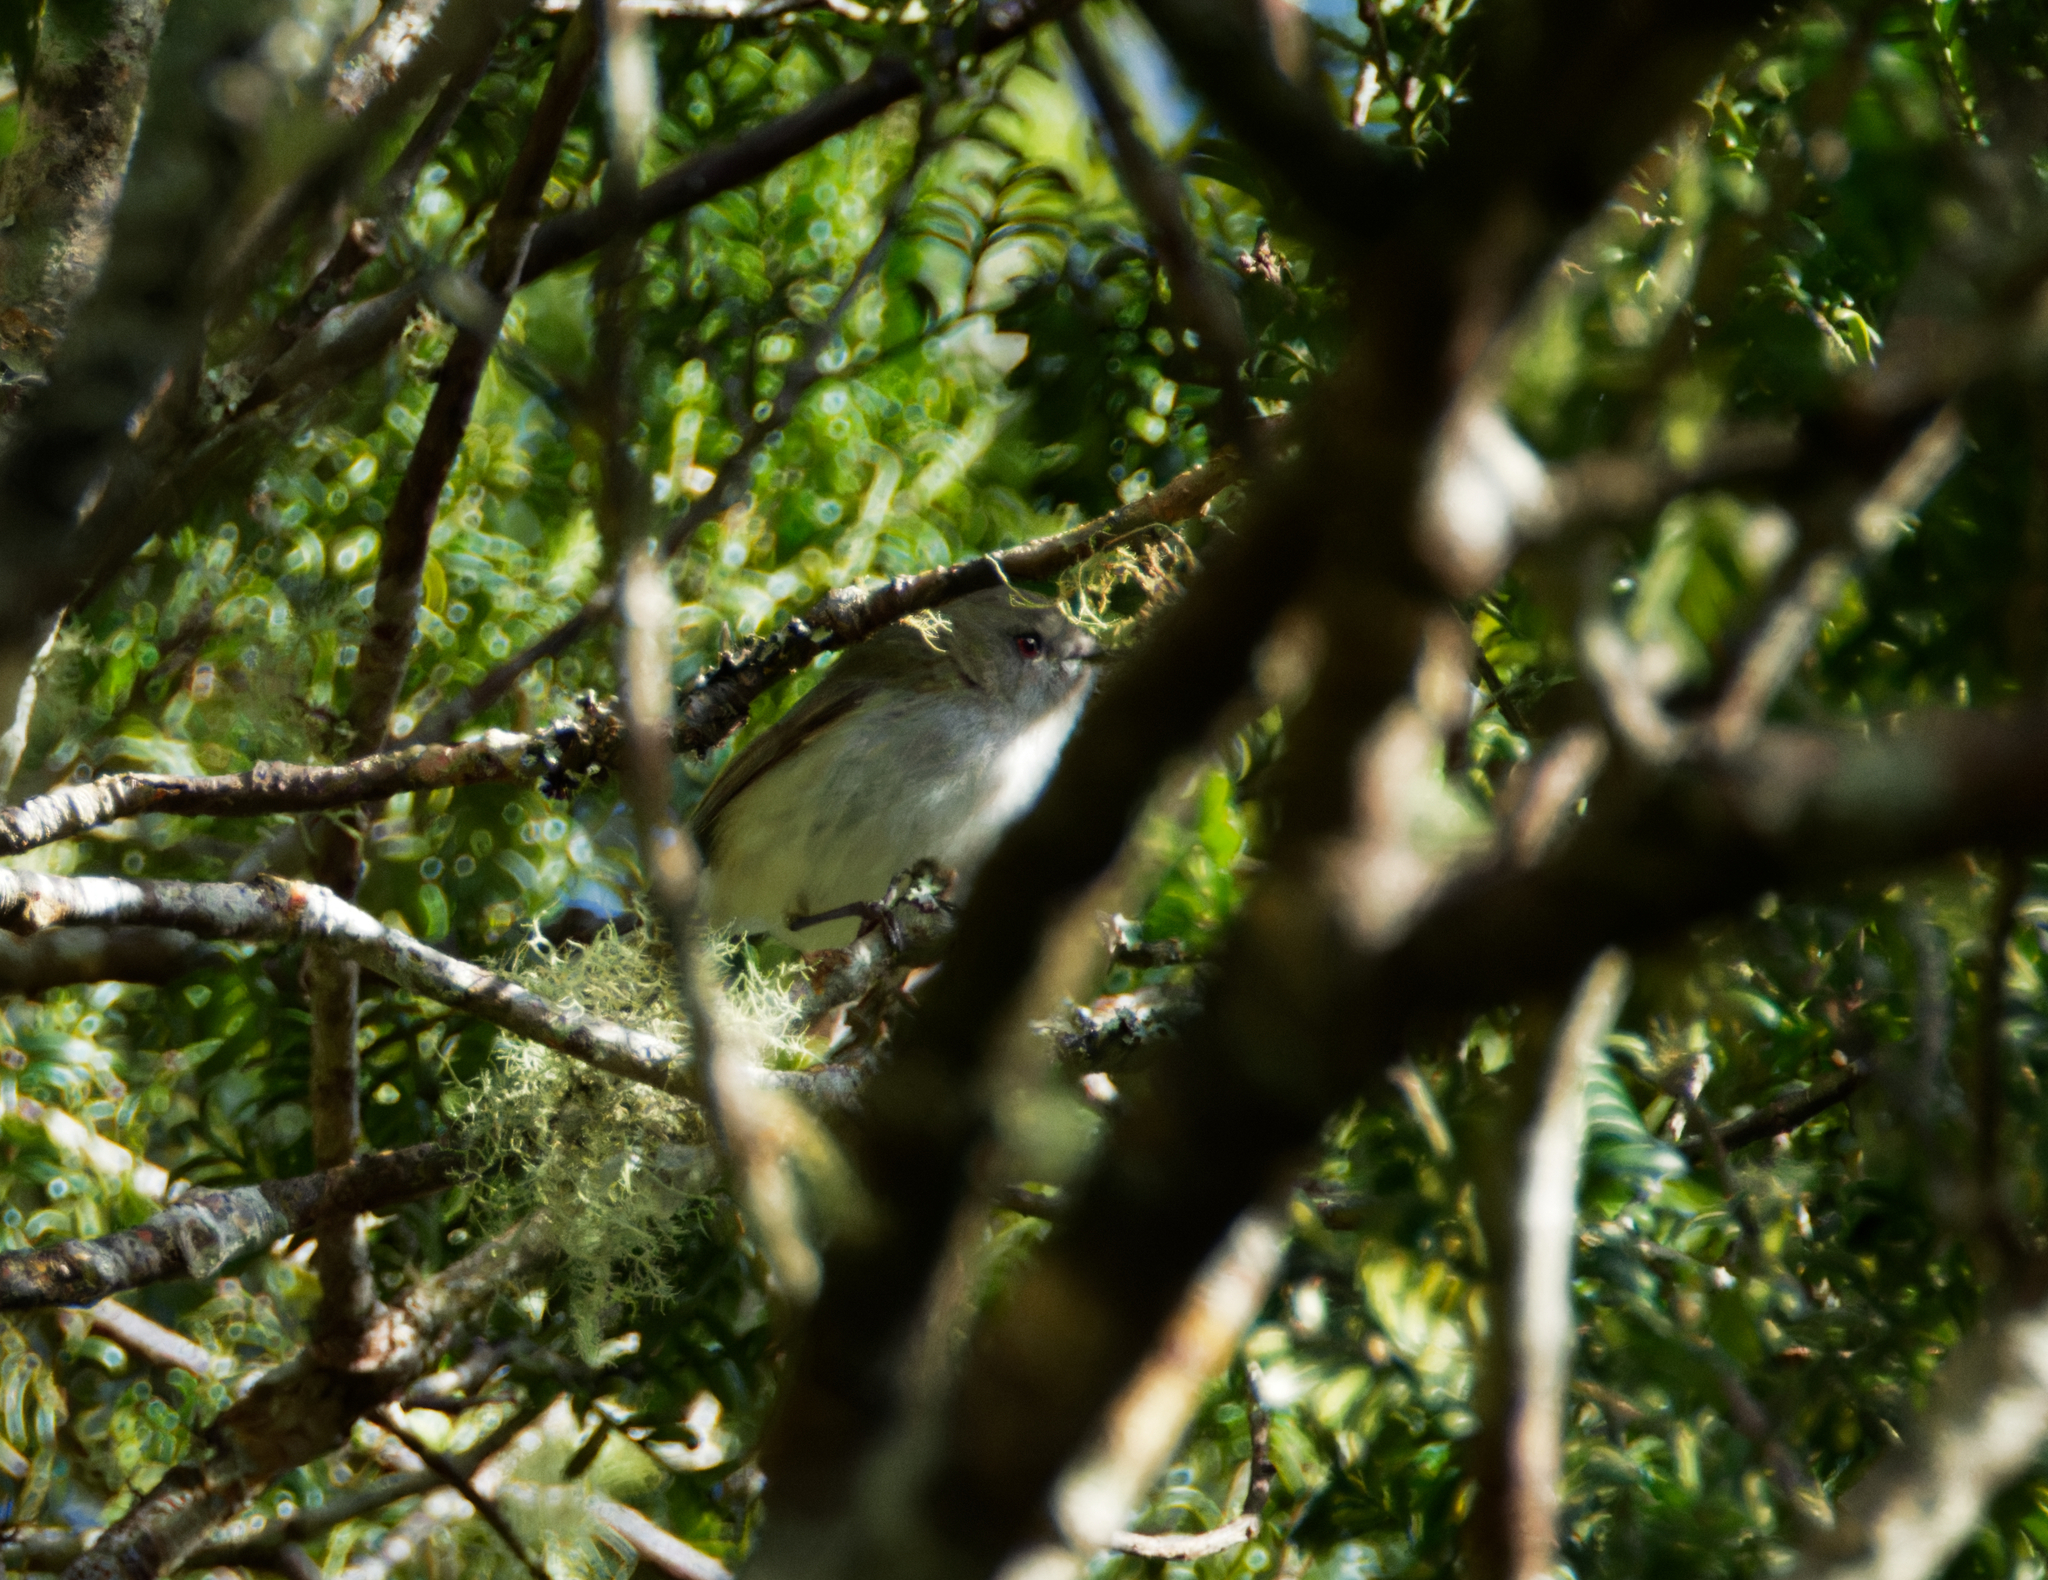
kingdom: Animalia
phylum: Chordata
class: Aves
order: Passeriformes
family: Acanthizidae
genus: Gerygone
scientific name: Gerygone igata
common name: Grey gerygone
